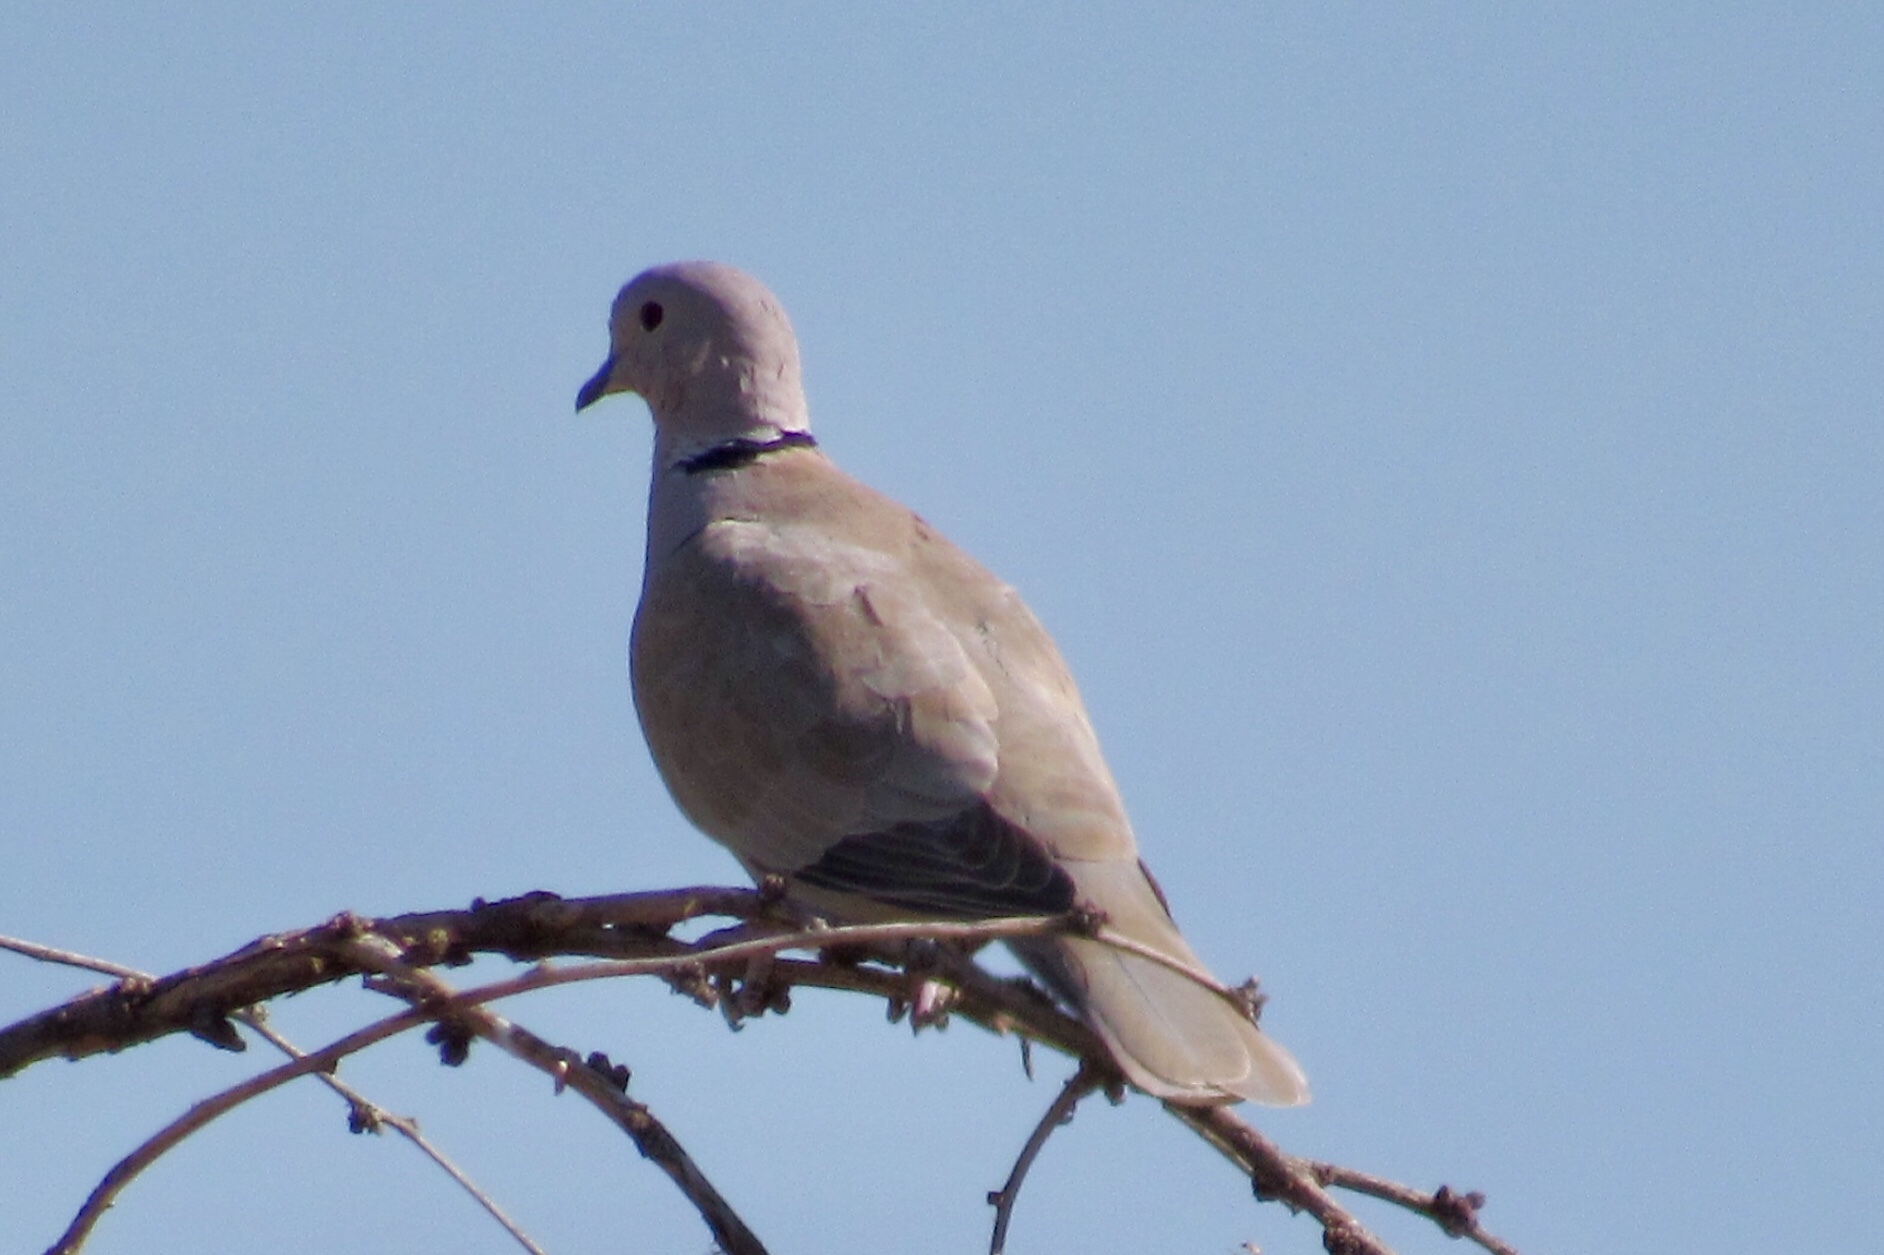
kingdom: Animalia
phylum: Chordata
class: Aves
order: Columbiformes
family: Columbidae
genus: Streptopelia
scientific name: Streptopelia decaocto
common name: Eurasian collared dove
